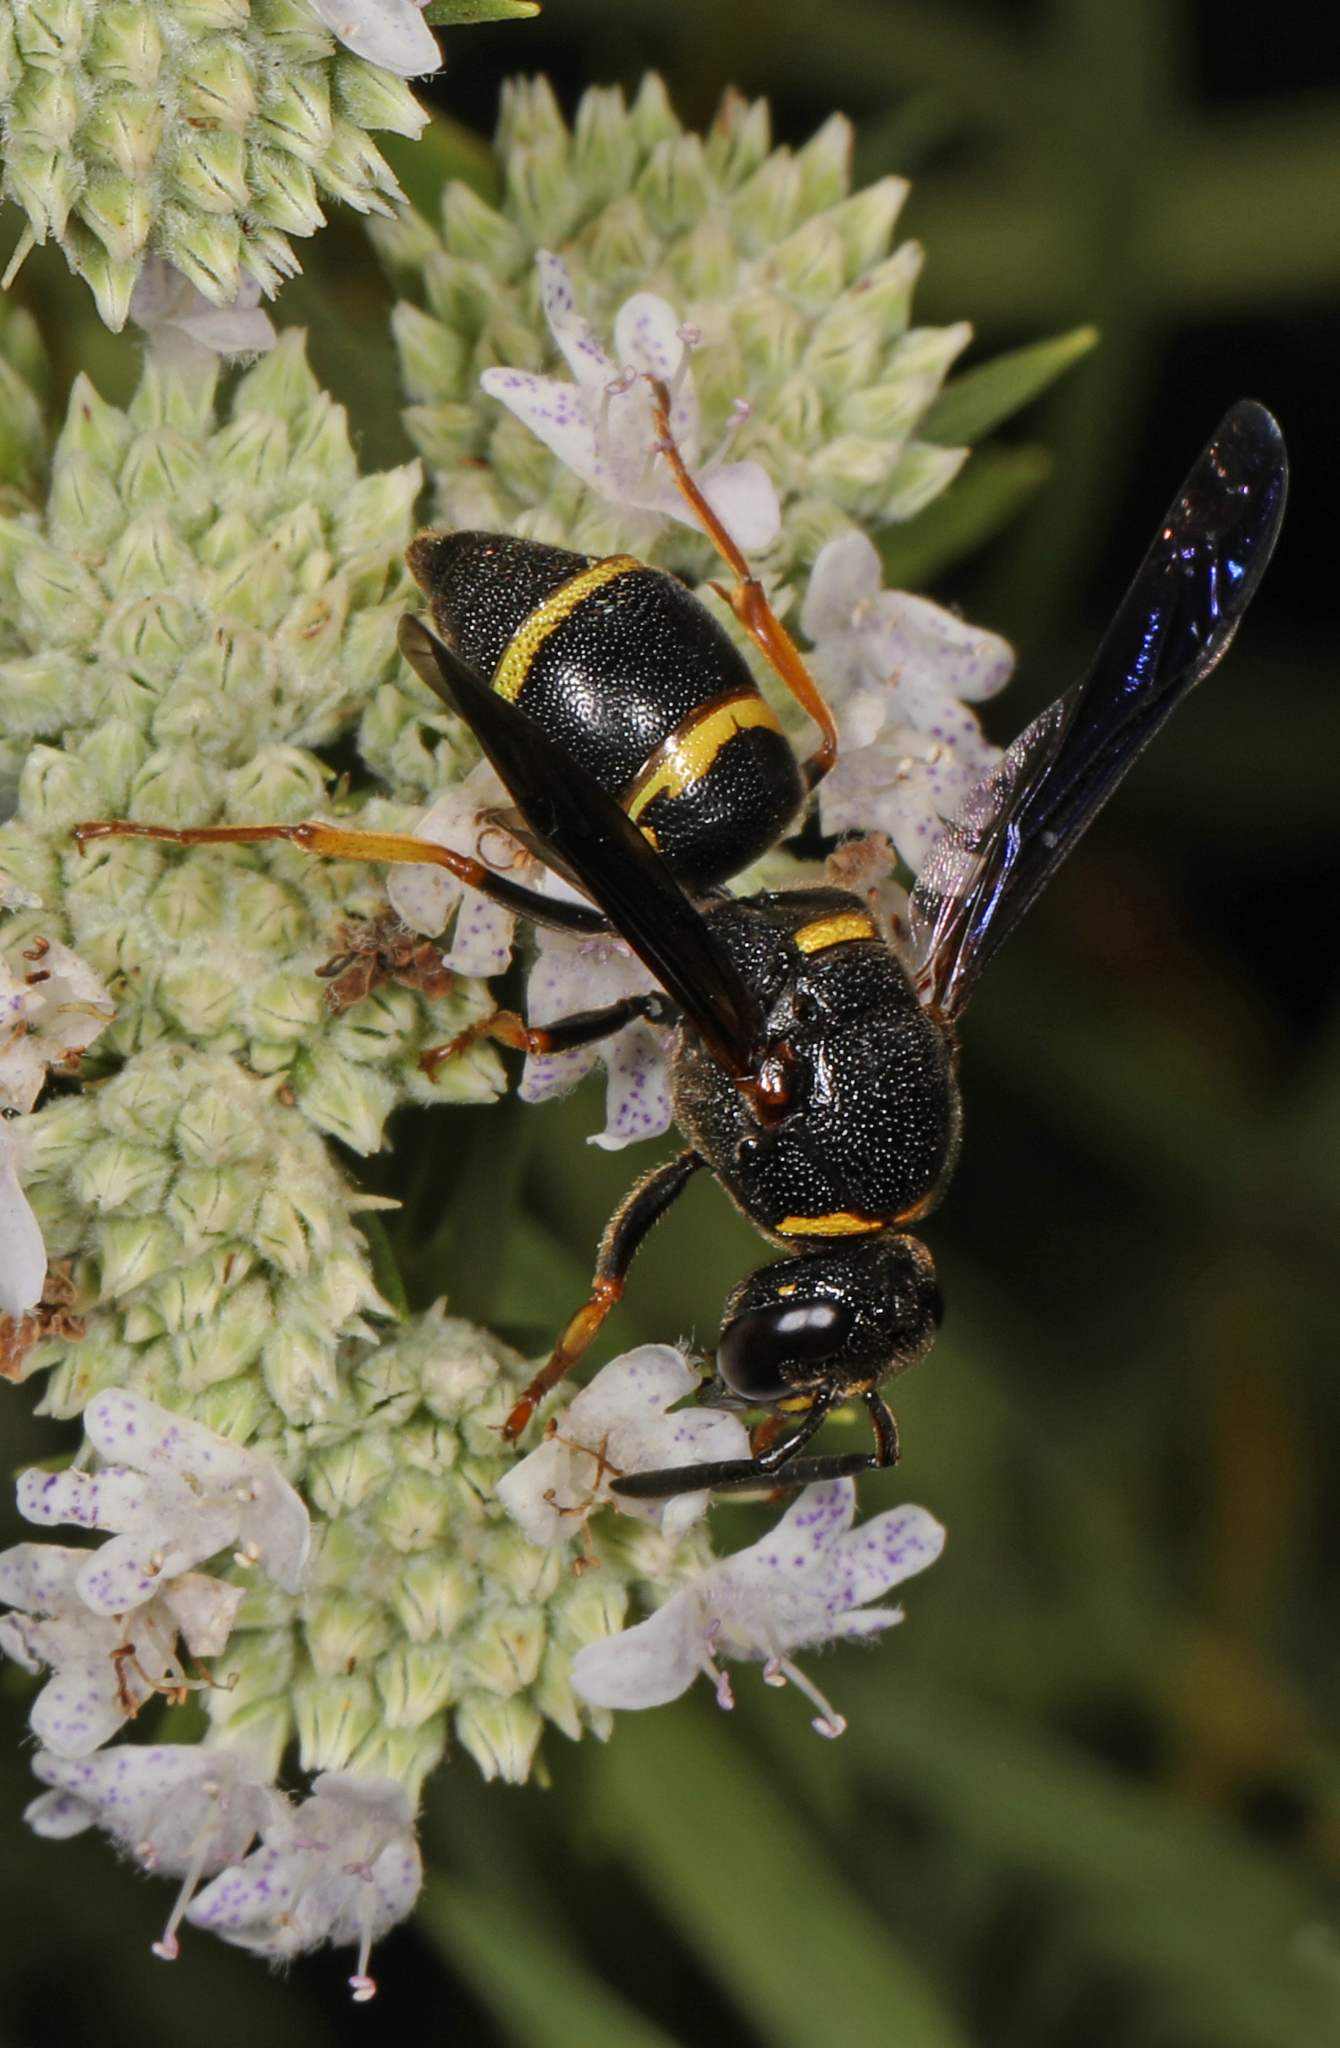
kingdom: Animalia
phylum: Arthropoda
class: Insecta
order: Hymenoptera
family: Eumenidae
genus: Euodynerus
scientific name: Euodynerus
